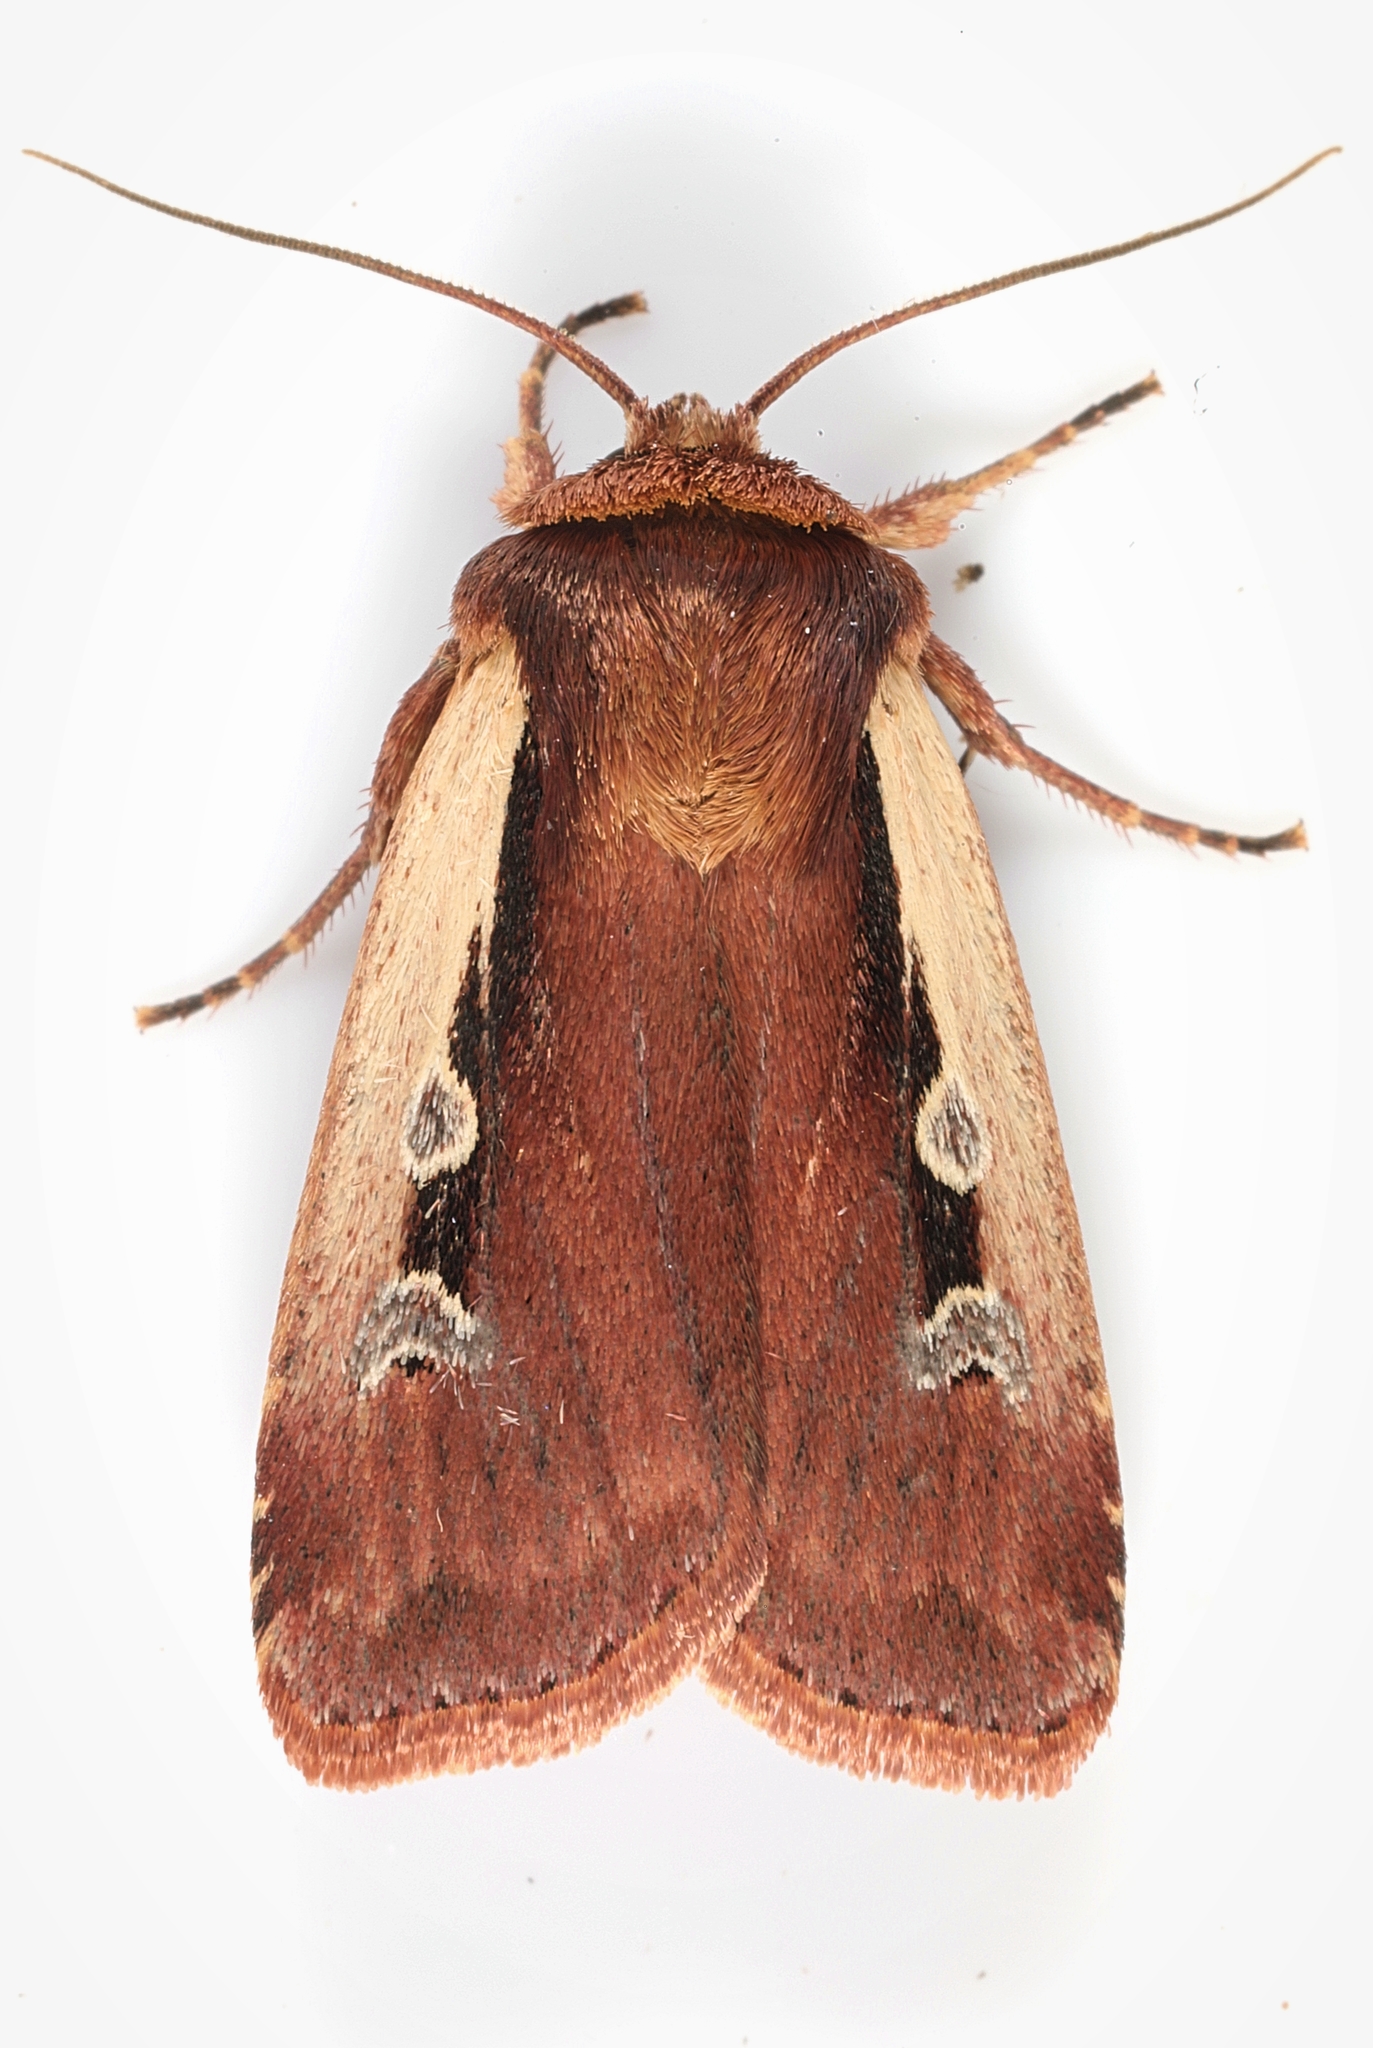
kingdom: Animalia
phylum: Arthropoda
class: Insecta
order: Lepidoptera
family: Noctuidae
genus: Ochropleura
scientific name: Ochropleura plecta
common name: Flame shoulder
